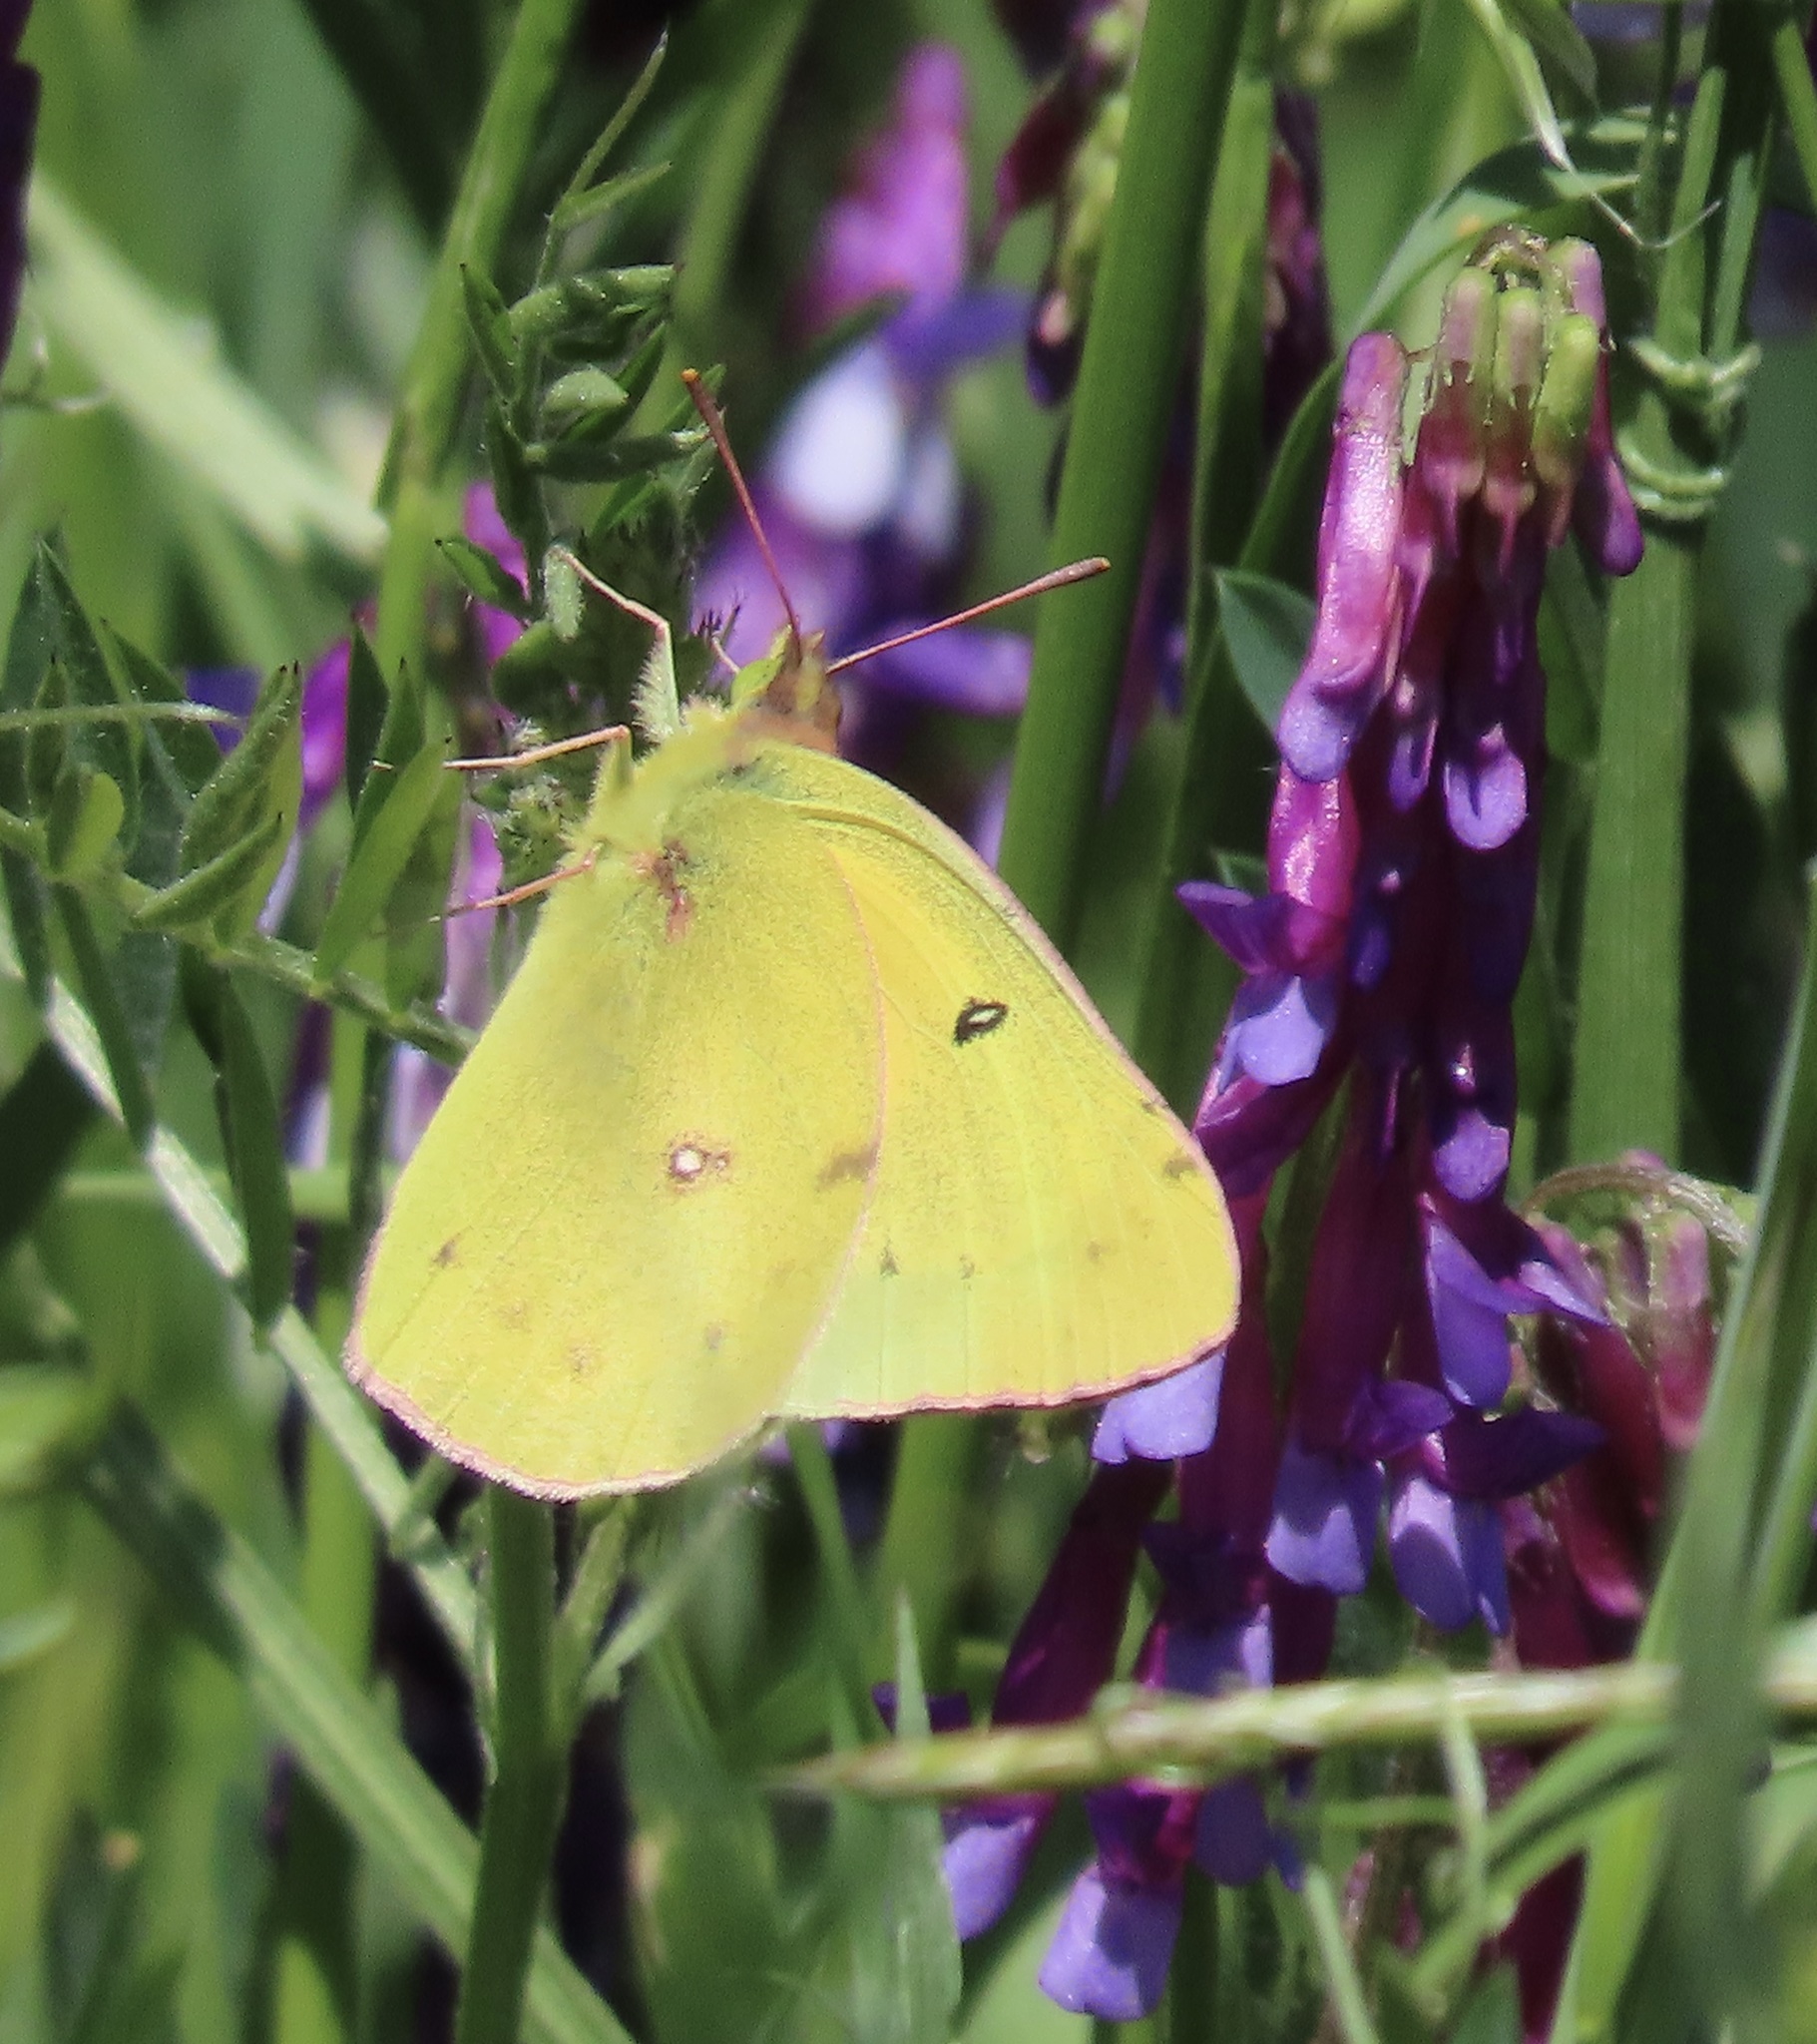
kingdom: Animalia
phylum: Arthropoda
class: Insecta
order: Lepidoptera
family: Pieridae
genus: Colias
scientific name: Colias eurytheme
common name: Alfalfa butterfly
